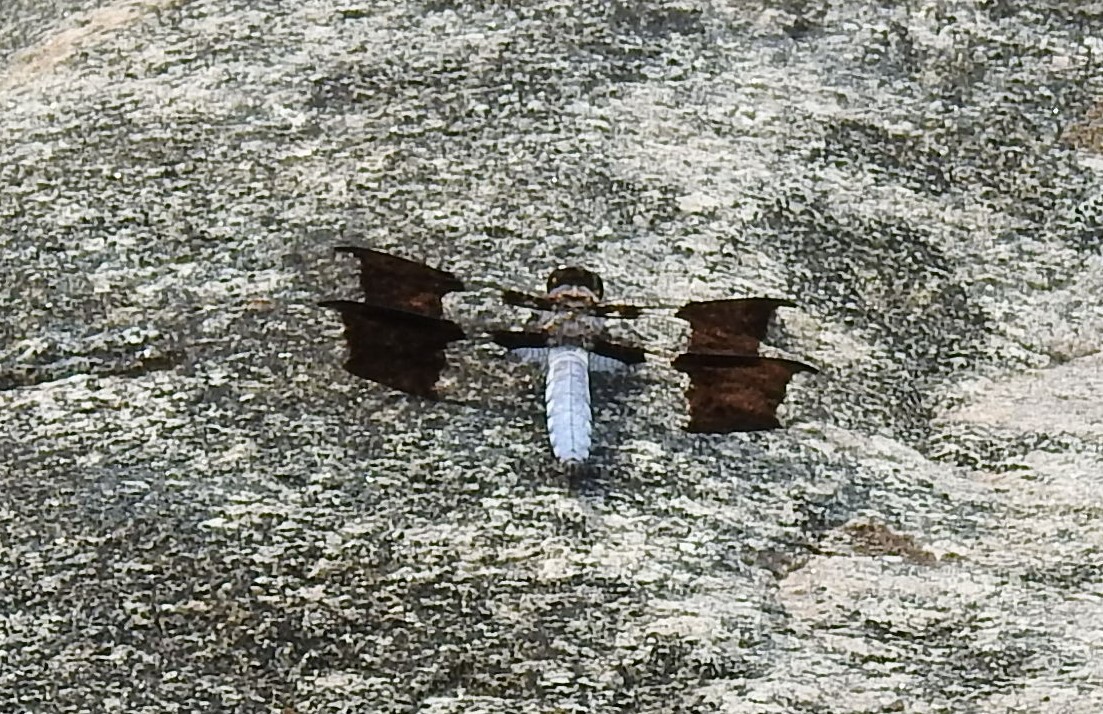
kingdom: Animalia
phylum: Arthropoda
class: Insecta
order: Odonata
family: Libellulidae
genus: Plathemis
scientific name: Plathemis lydia
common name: Common whitetail
